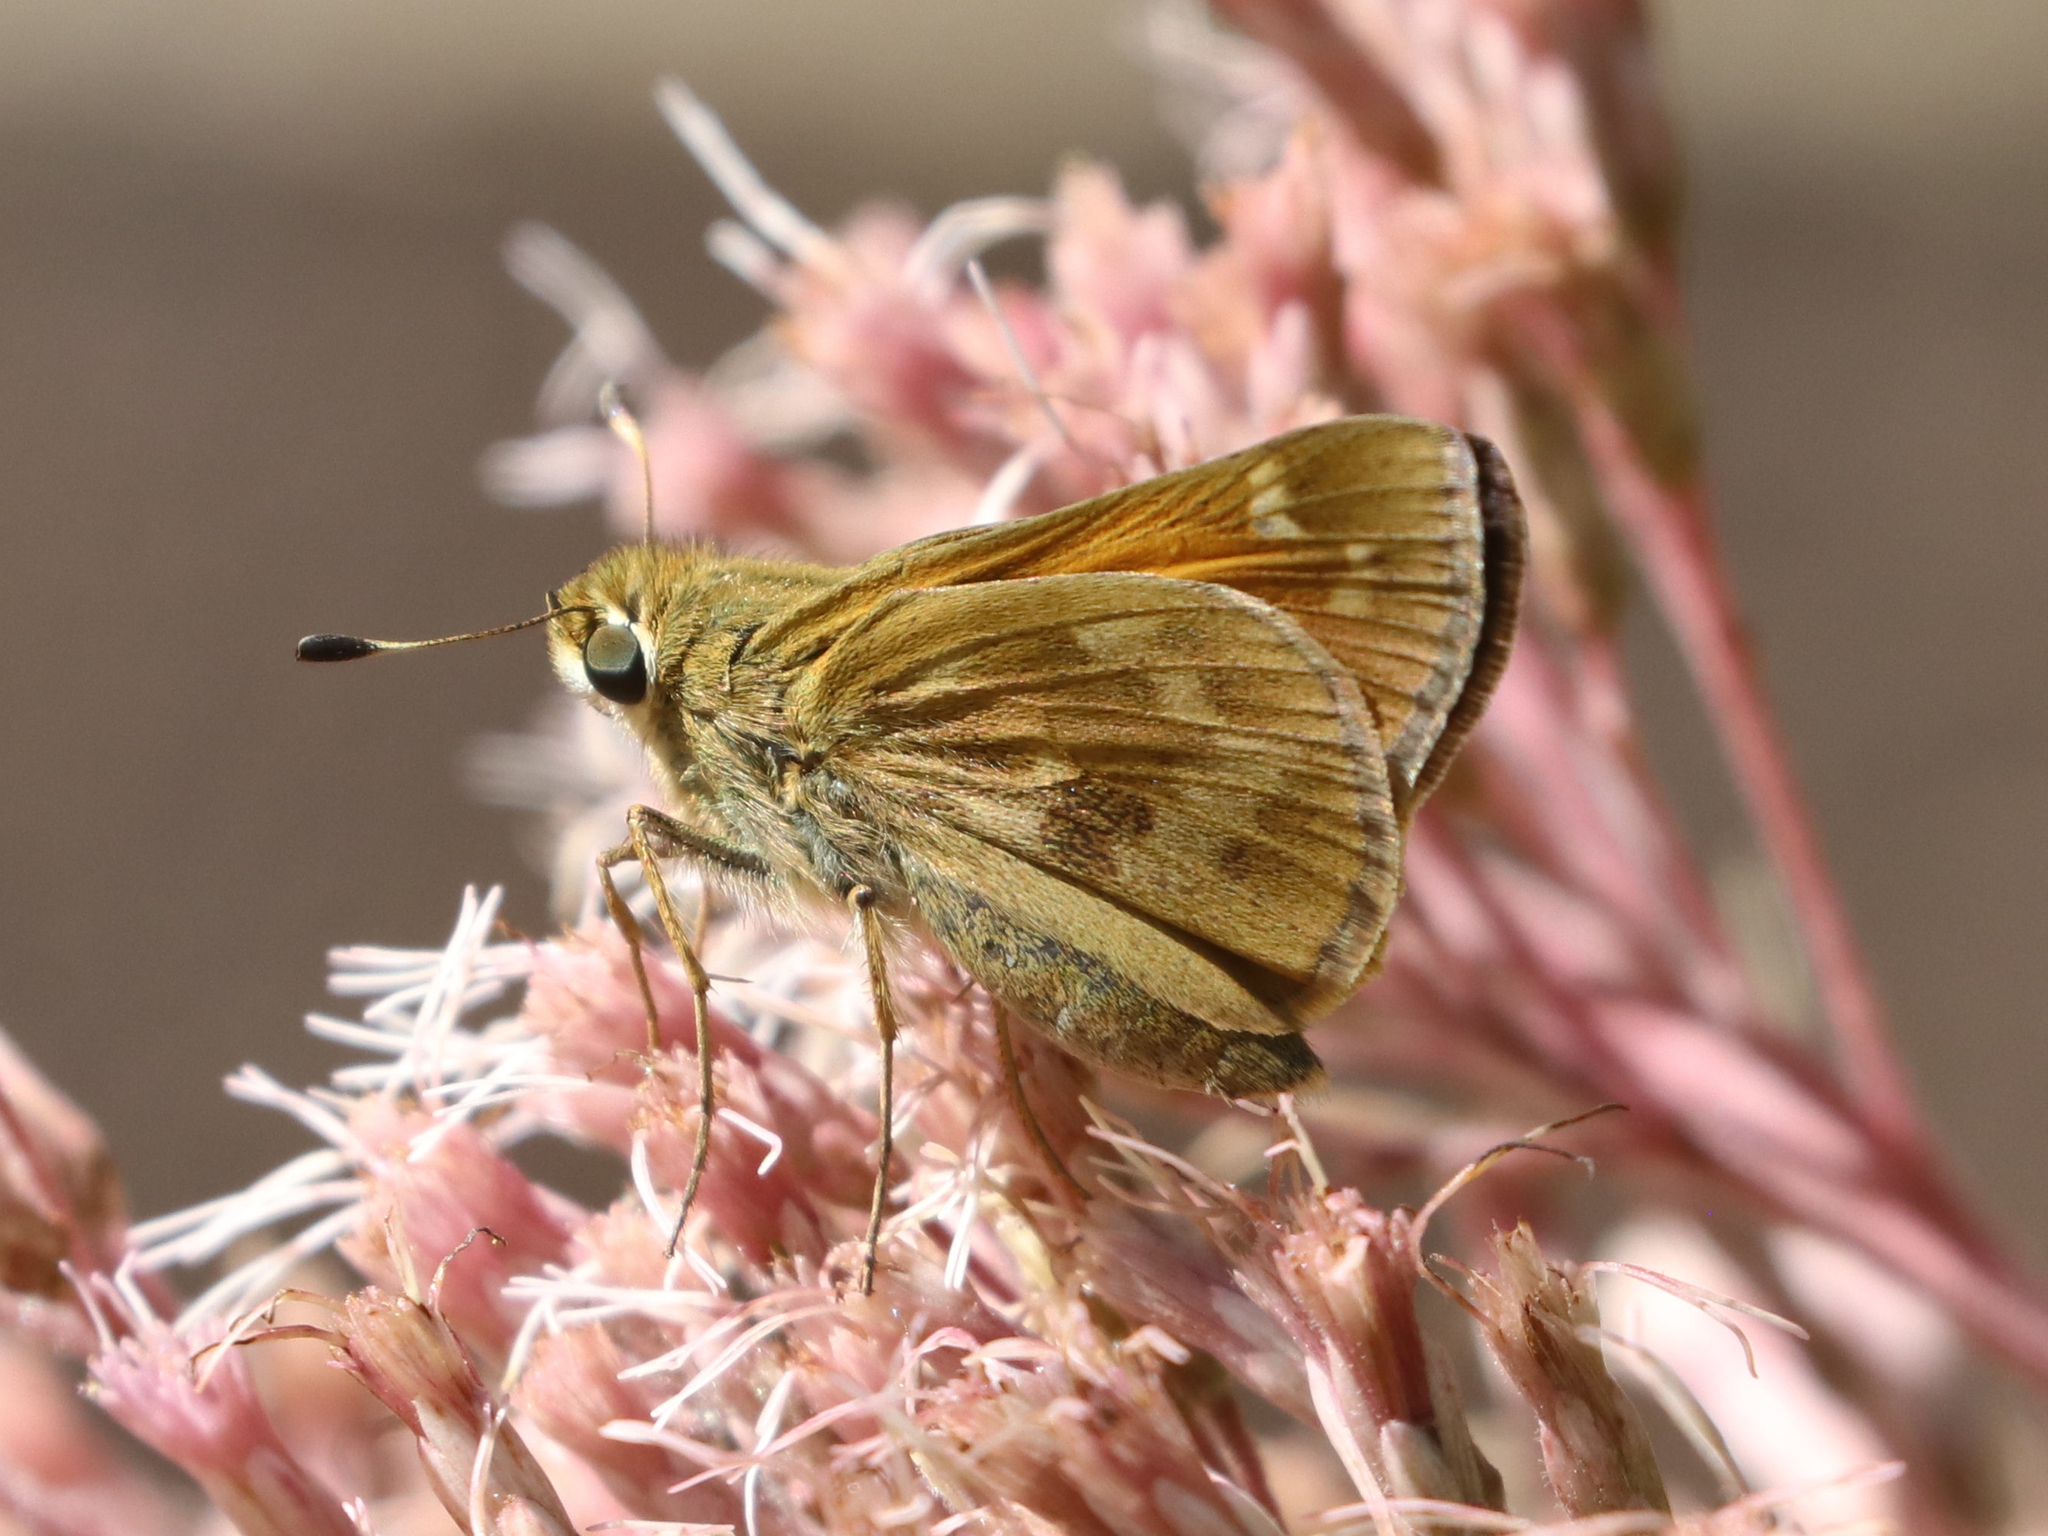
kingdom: Animalia
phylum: Arthropoda
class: Insecta
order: Lepidoptera
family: Hesperiidae
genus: Atalopedes
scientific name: Atalopedes
